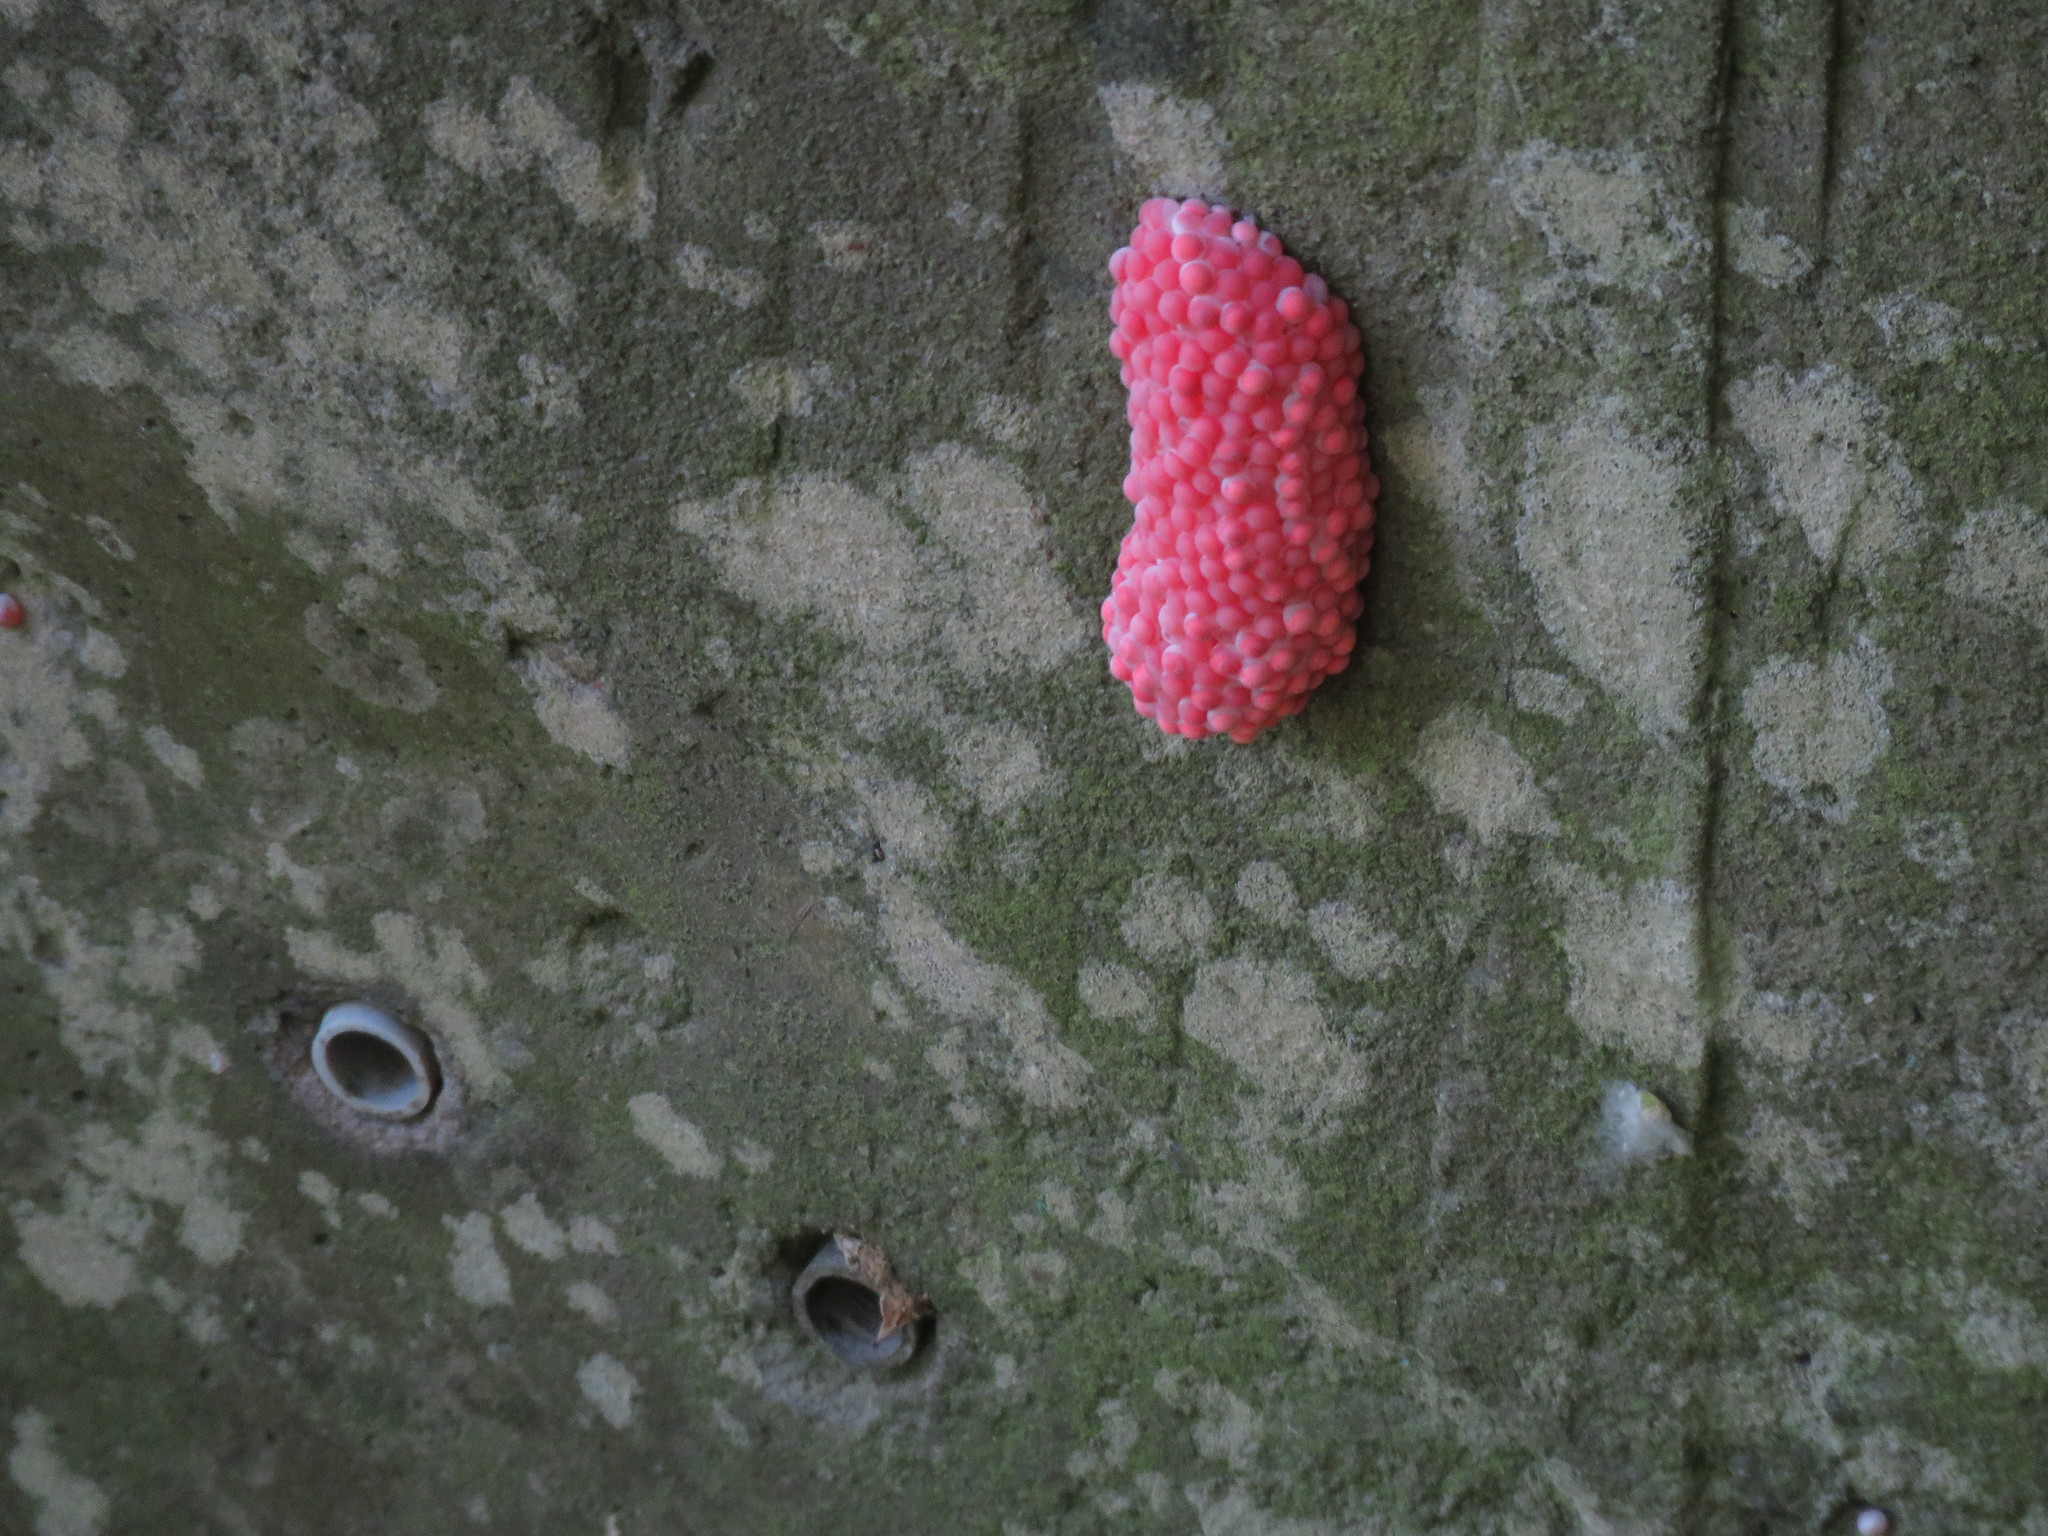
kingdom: Animalia
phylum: Mollusca
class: Gastropoda
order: Architaenioglossa
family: Ampullariidae
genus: Pomacea
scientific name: Pomacea canaliculata
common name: Channeled applesnail
